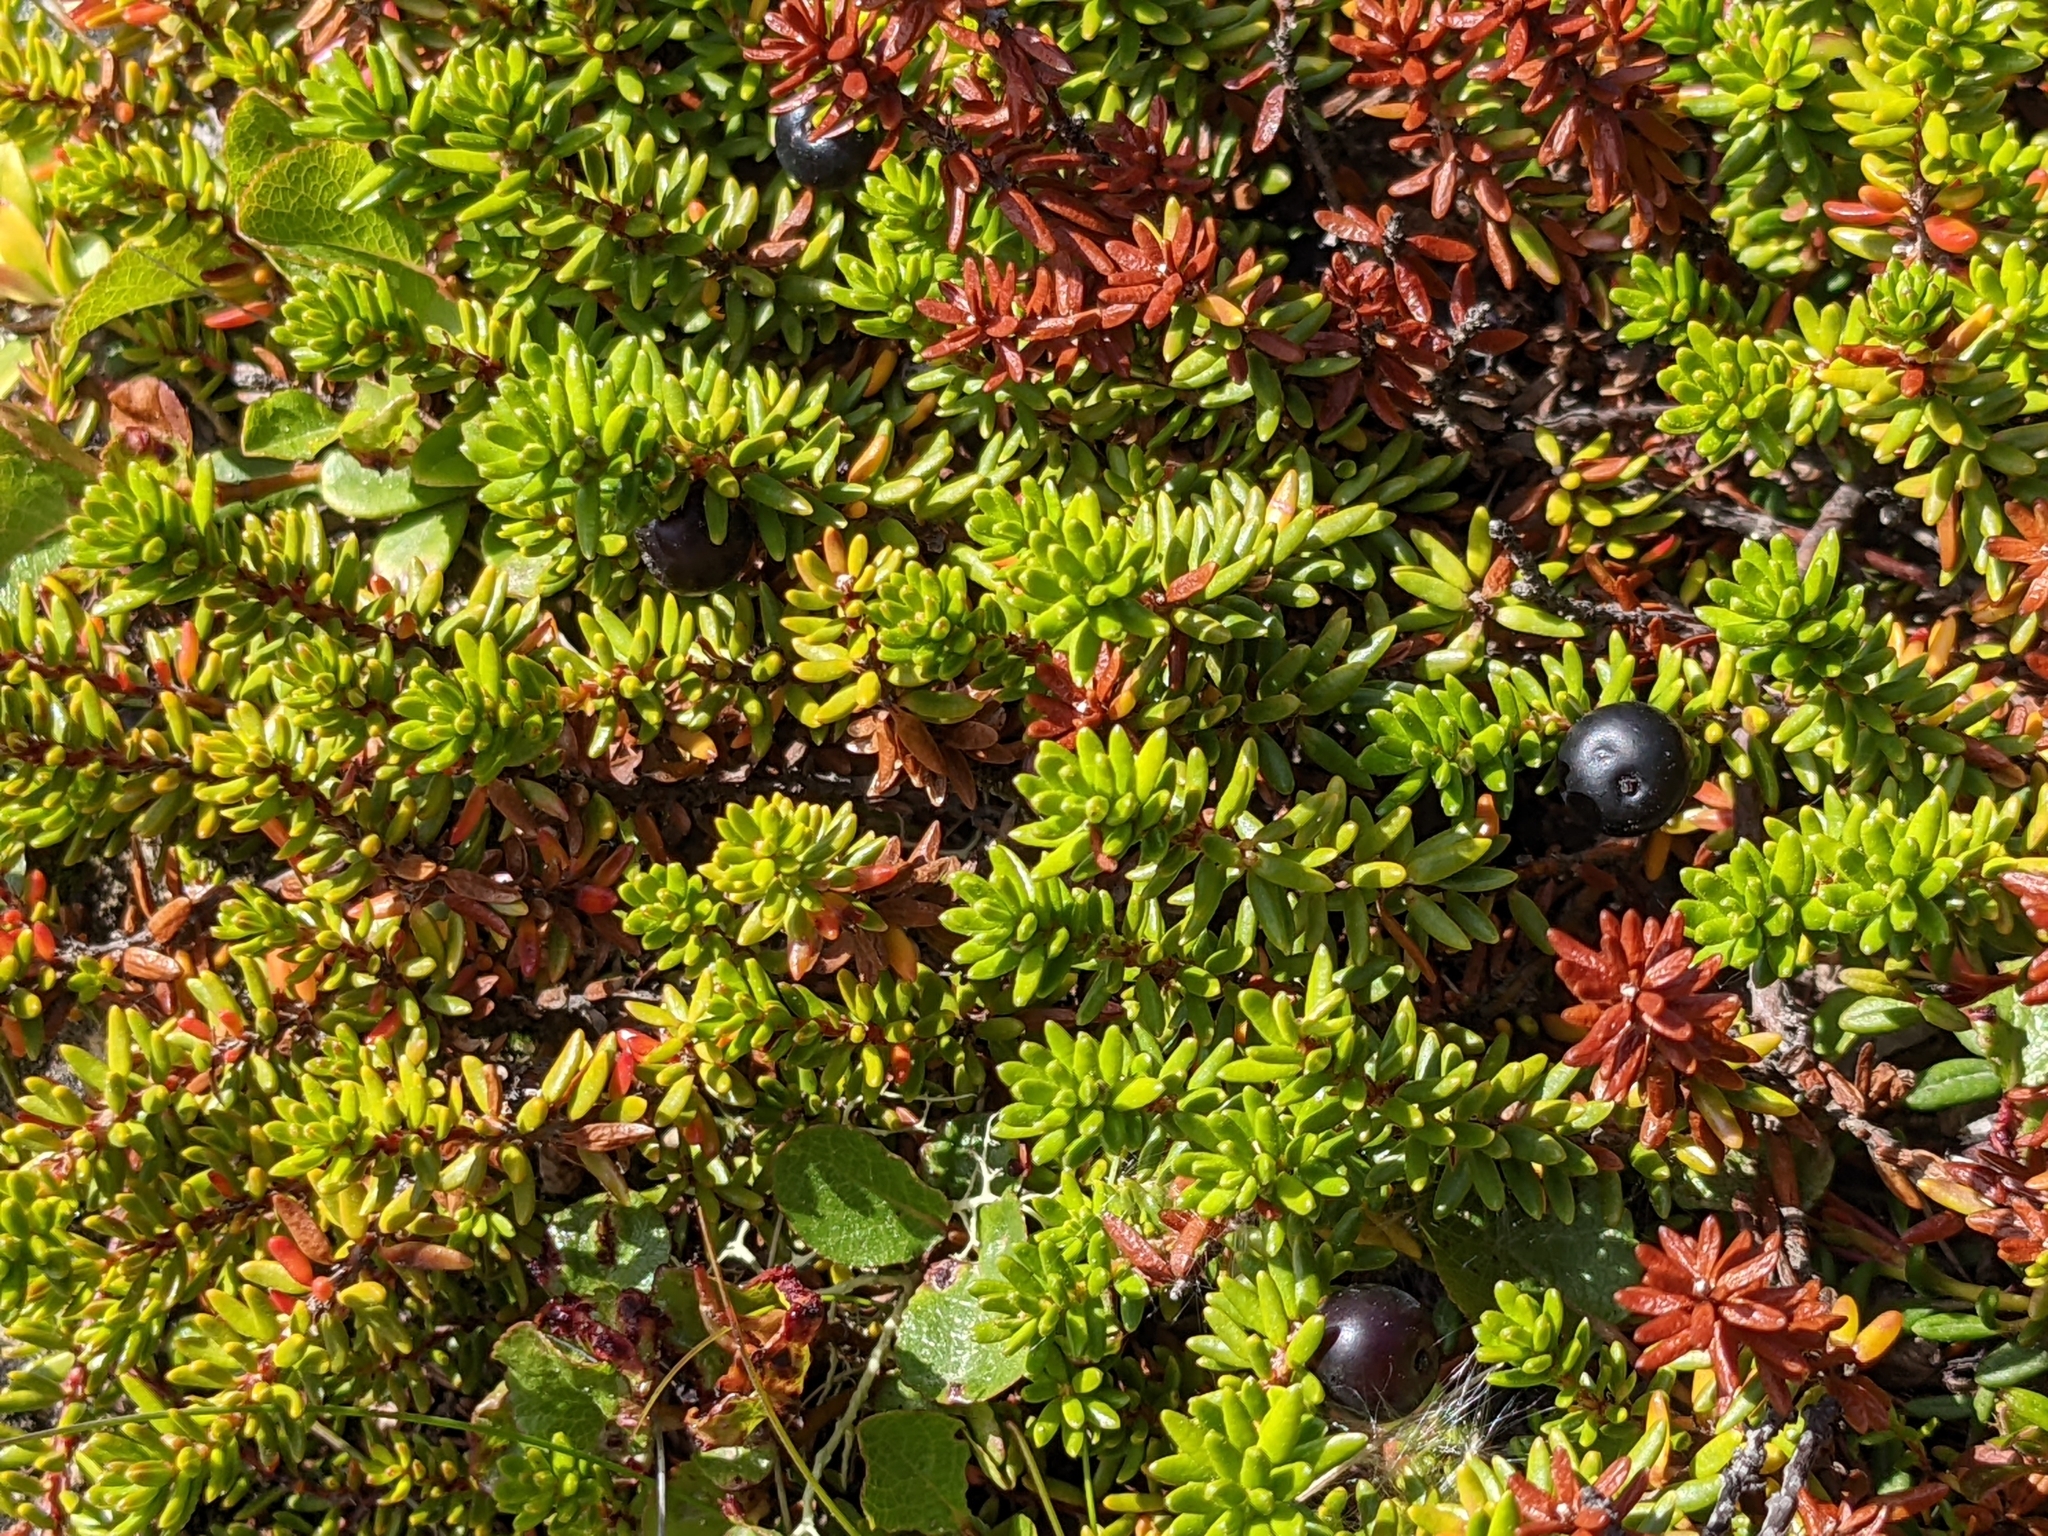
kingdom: Plantae
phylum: Tracheophyta
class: Magnoliopsida
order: Ericales
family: Ericaceae
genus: Empetrum
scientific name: Empetrum nigrum
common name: Black crowberry
